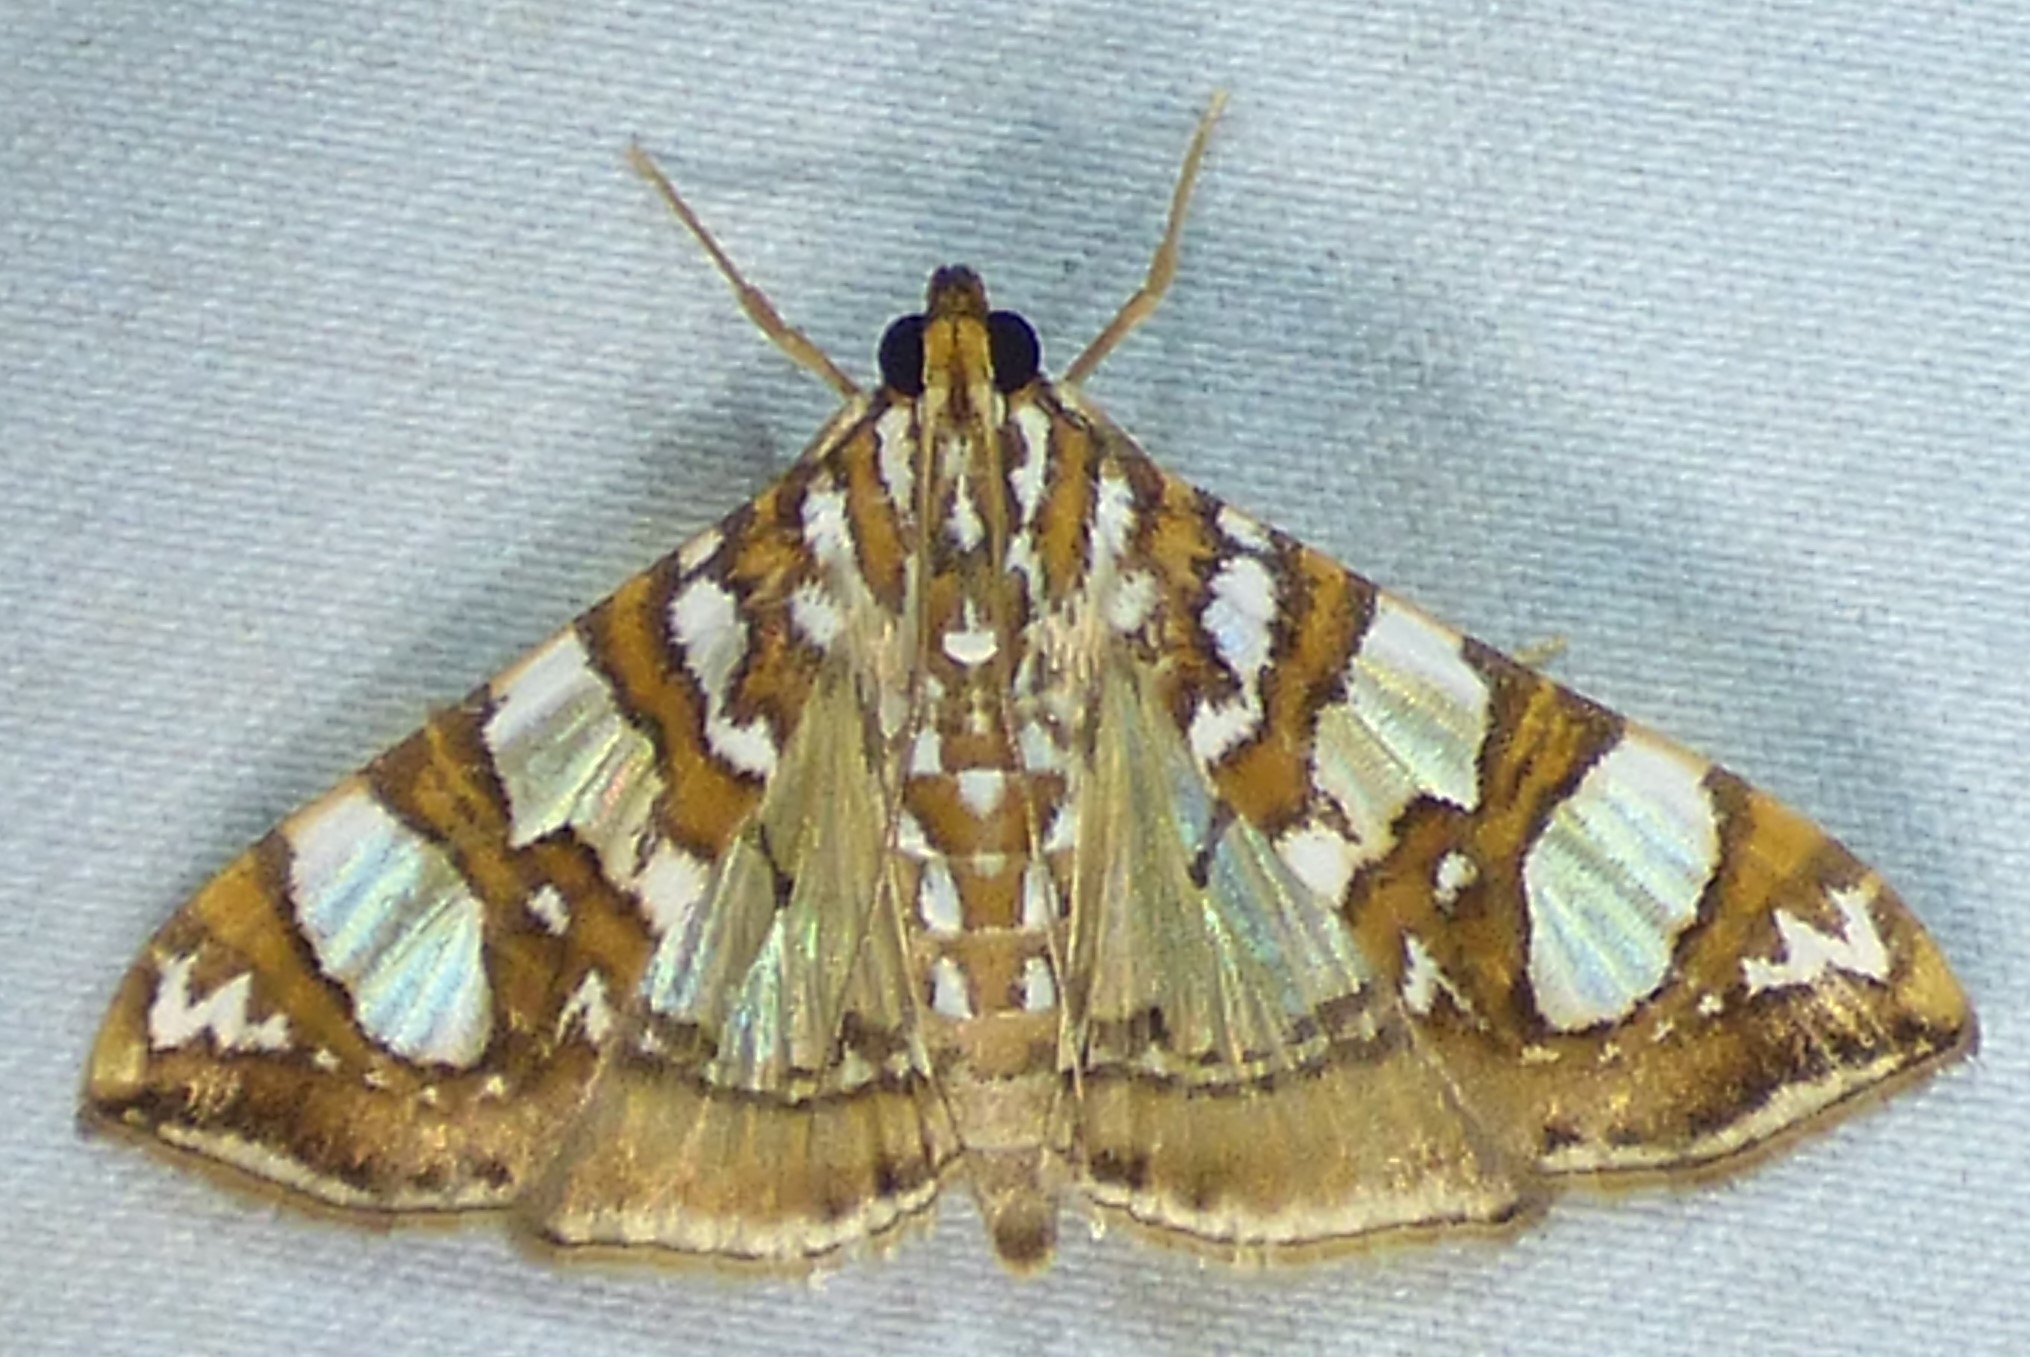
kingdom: Animalia
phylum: Arthropoda
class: Insecta
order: Lepidoptera
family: Crambidae
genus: Glyphodes
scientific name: Glyphodes sibillalis
